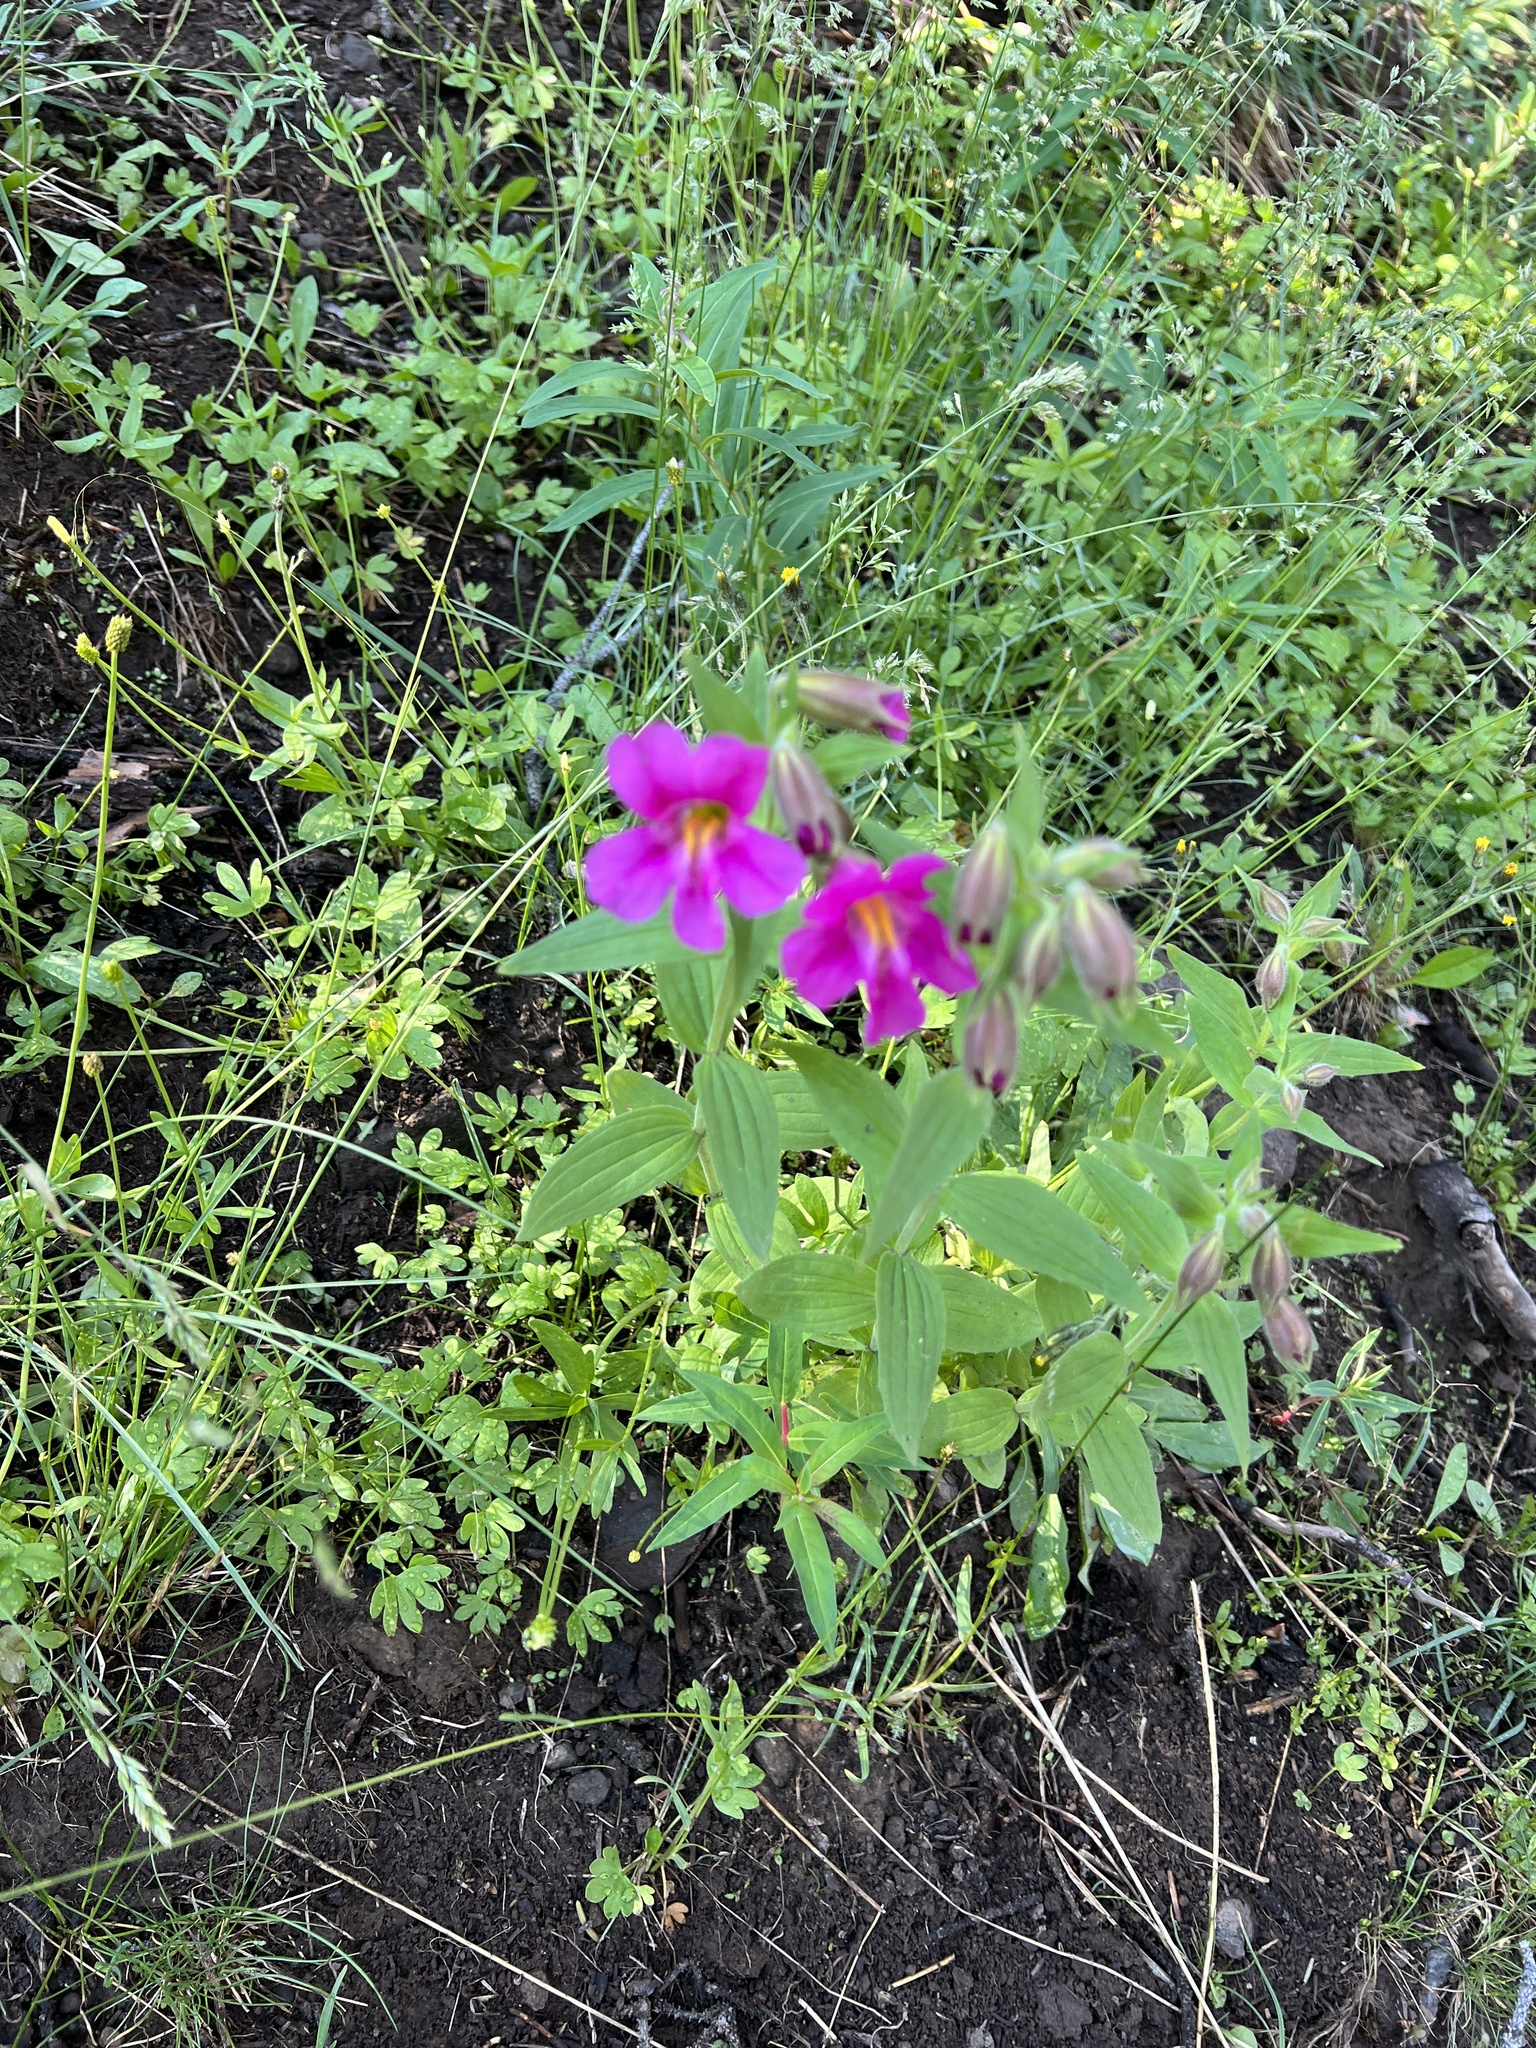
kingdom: Plantae
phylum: Tracheophyta
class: Magnoliopsida
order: Lamiales
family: Phrymaceae
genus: Erythranthe
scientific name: Erythranthe lewisii
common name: Lewis's monkey-flower
